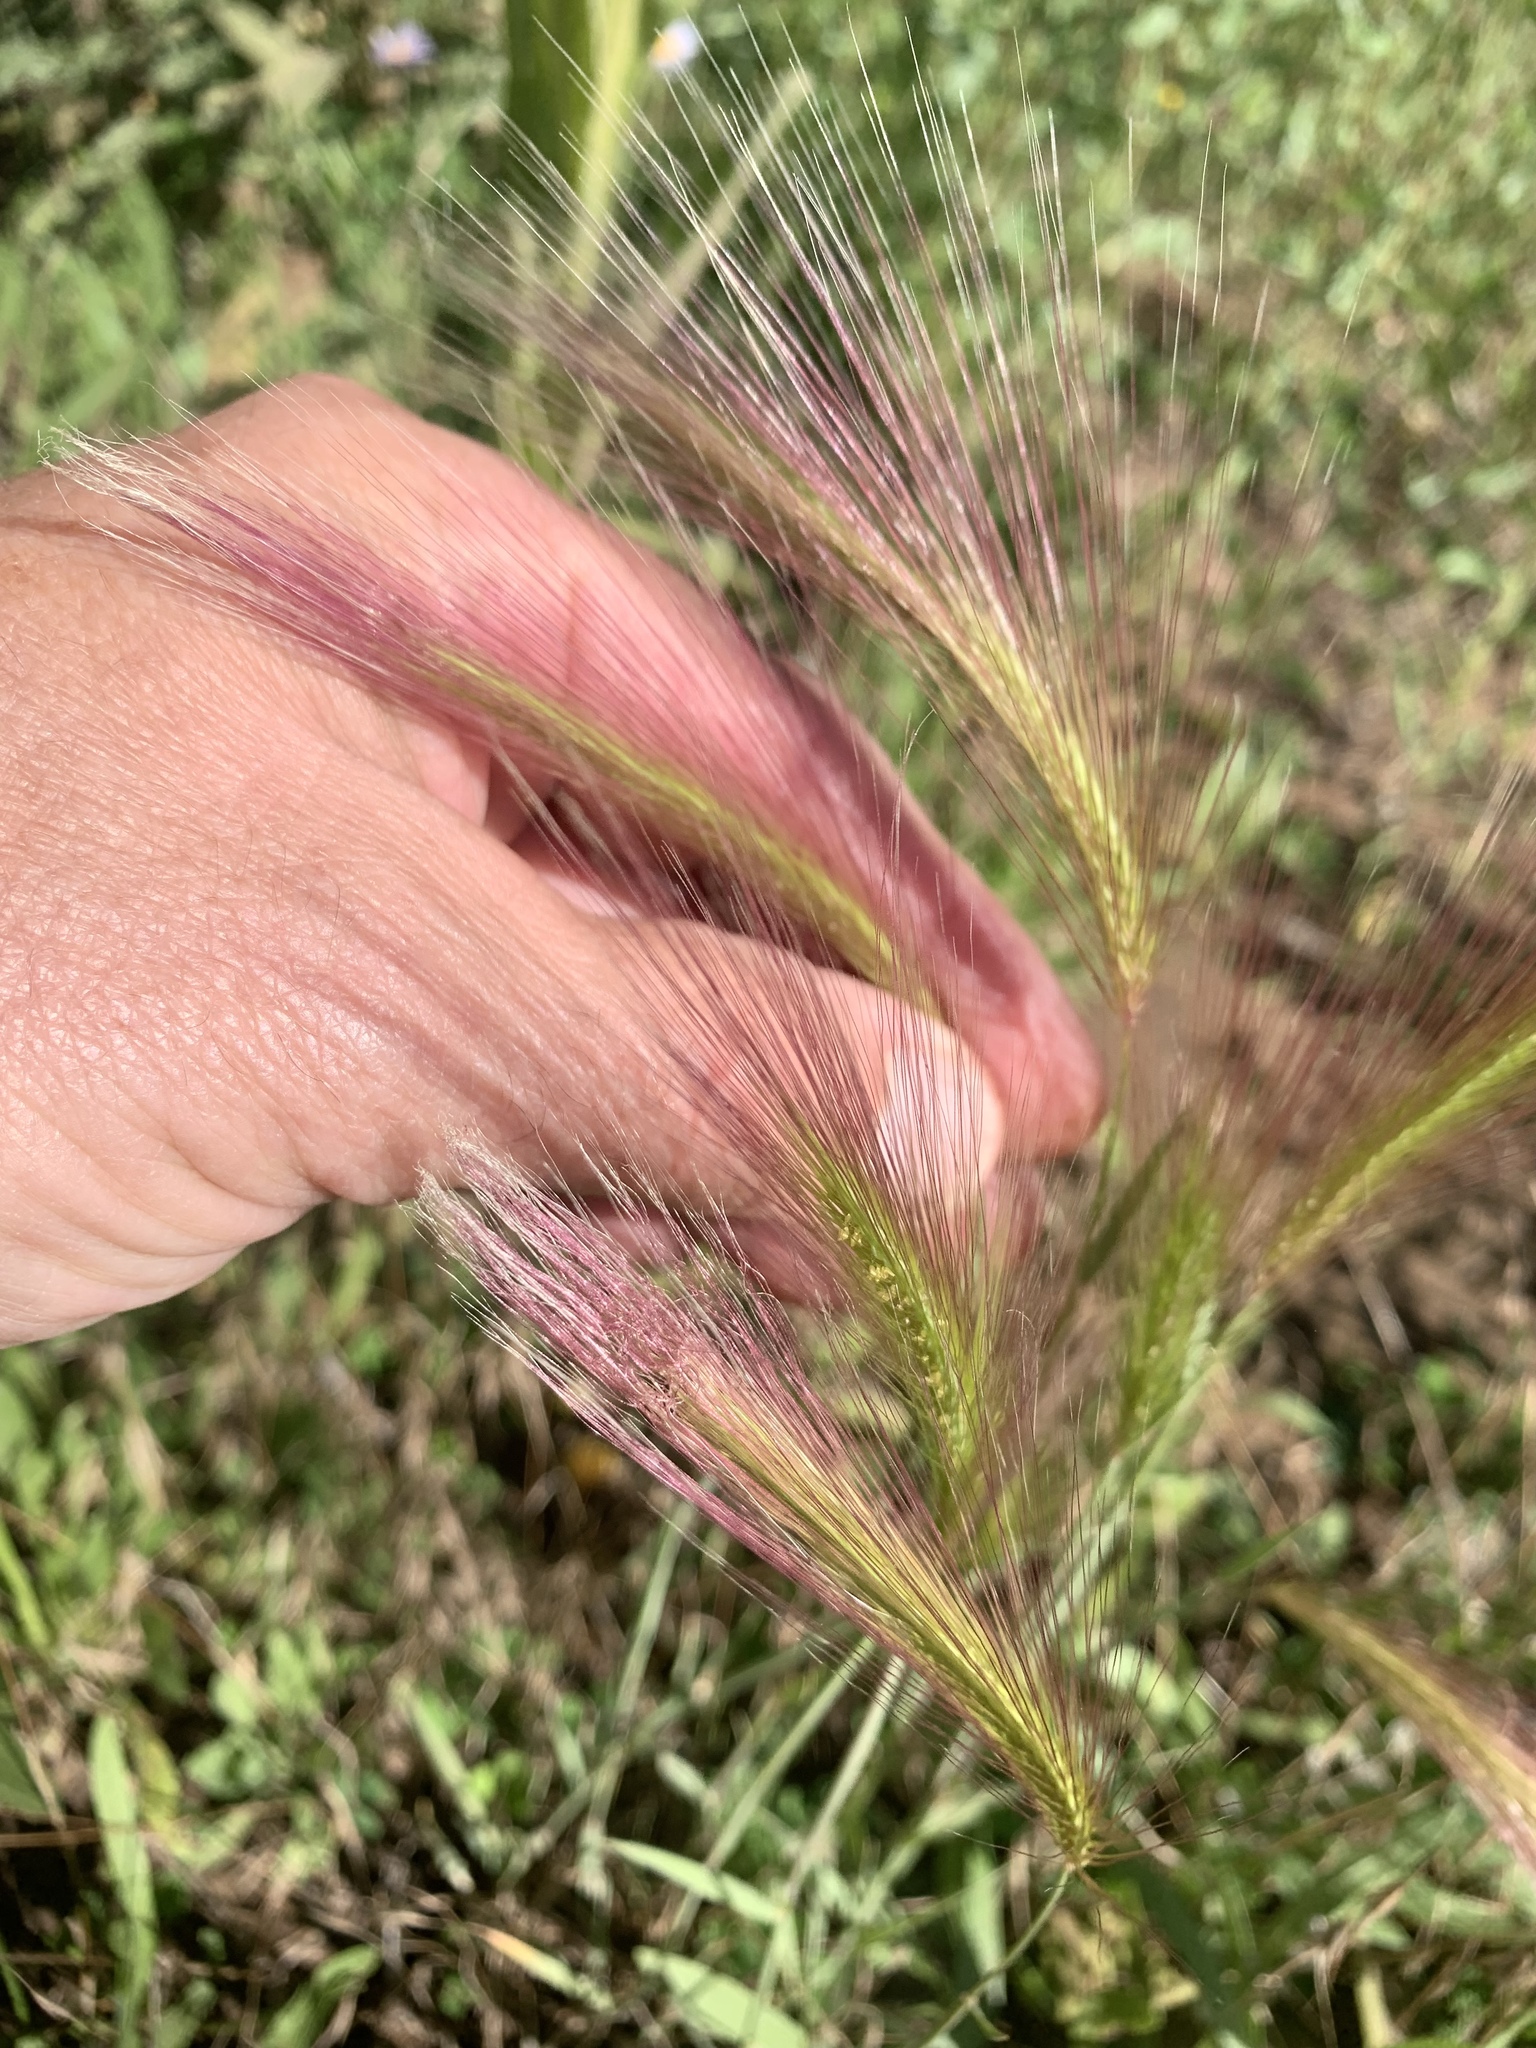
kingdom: Plantae
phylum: Tracheophyta
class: Liliopsida
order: Poales
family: Poaceae
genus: Hordeum
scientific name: Hordeum jubatum
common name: Foxtail barley
